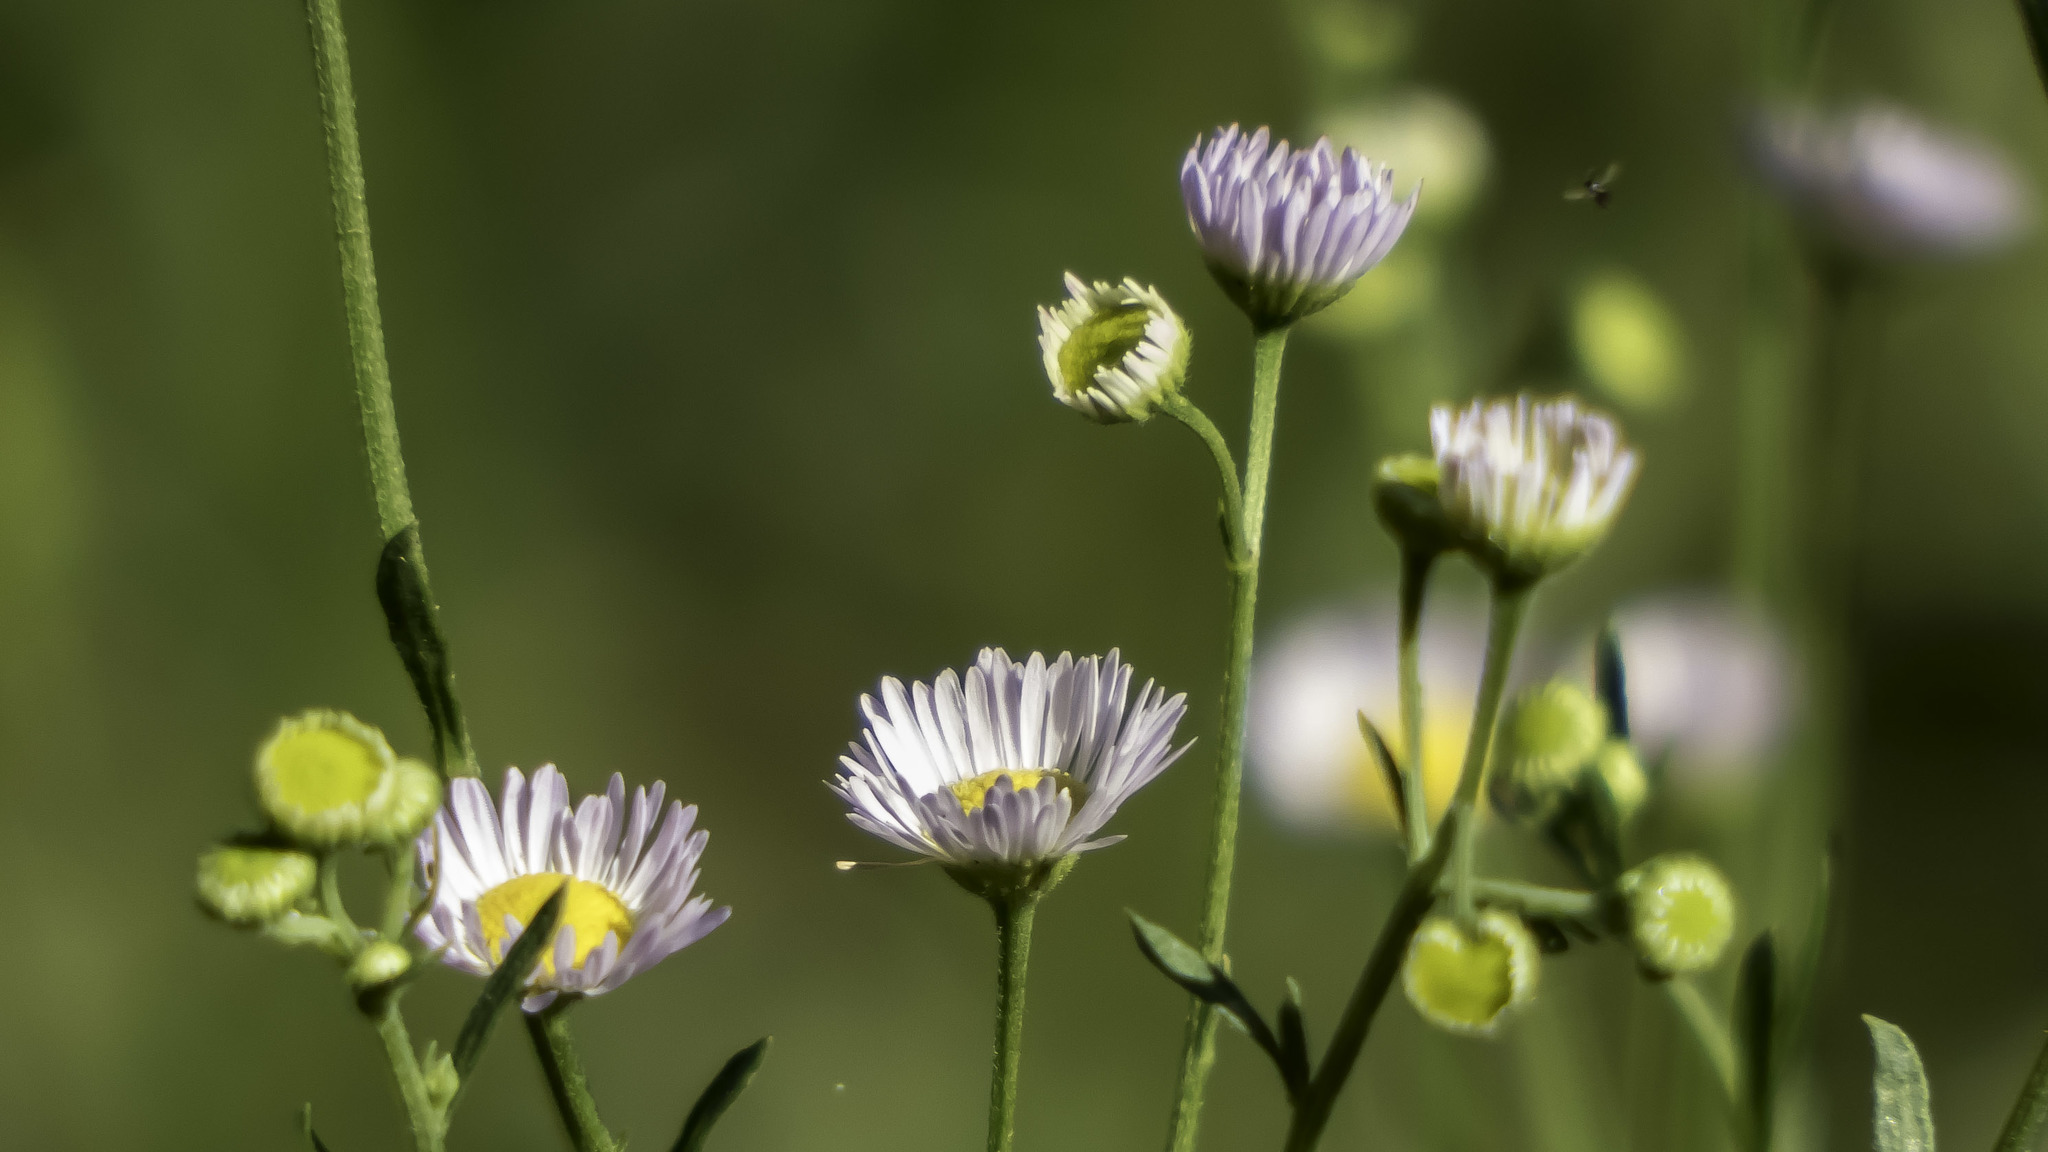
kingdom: Plantae
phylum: Tracheophyta
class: Magnoliopsida
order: Asterales
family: Asteraceae
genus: Erigeron
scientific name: Erigeron strigosus
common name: Common eastern fleabane
